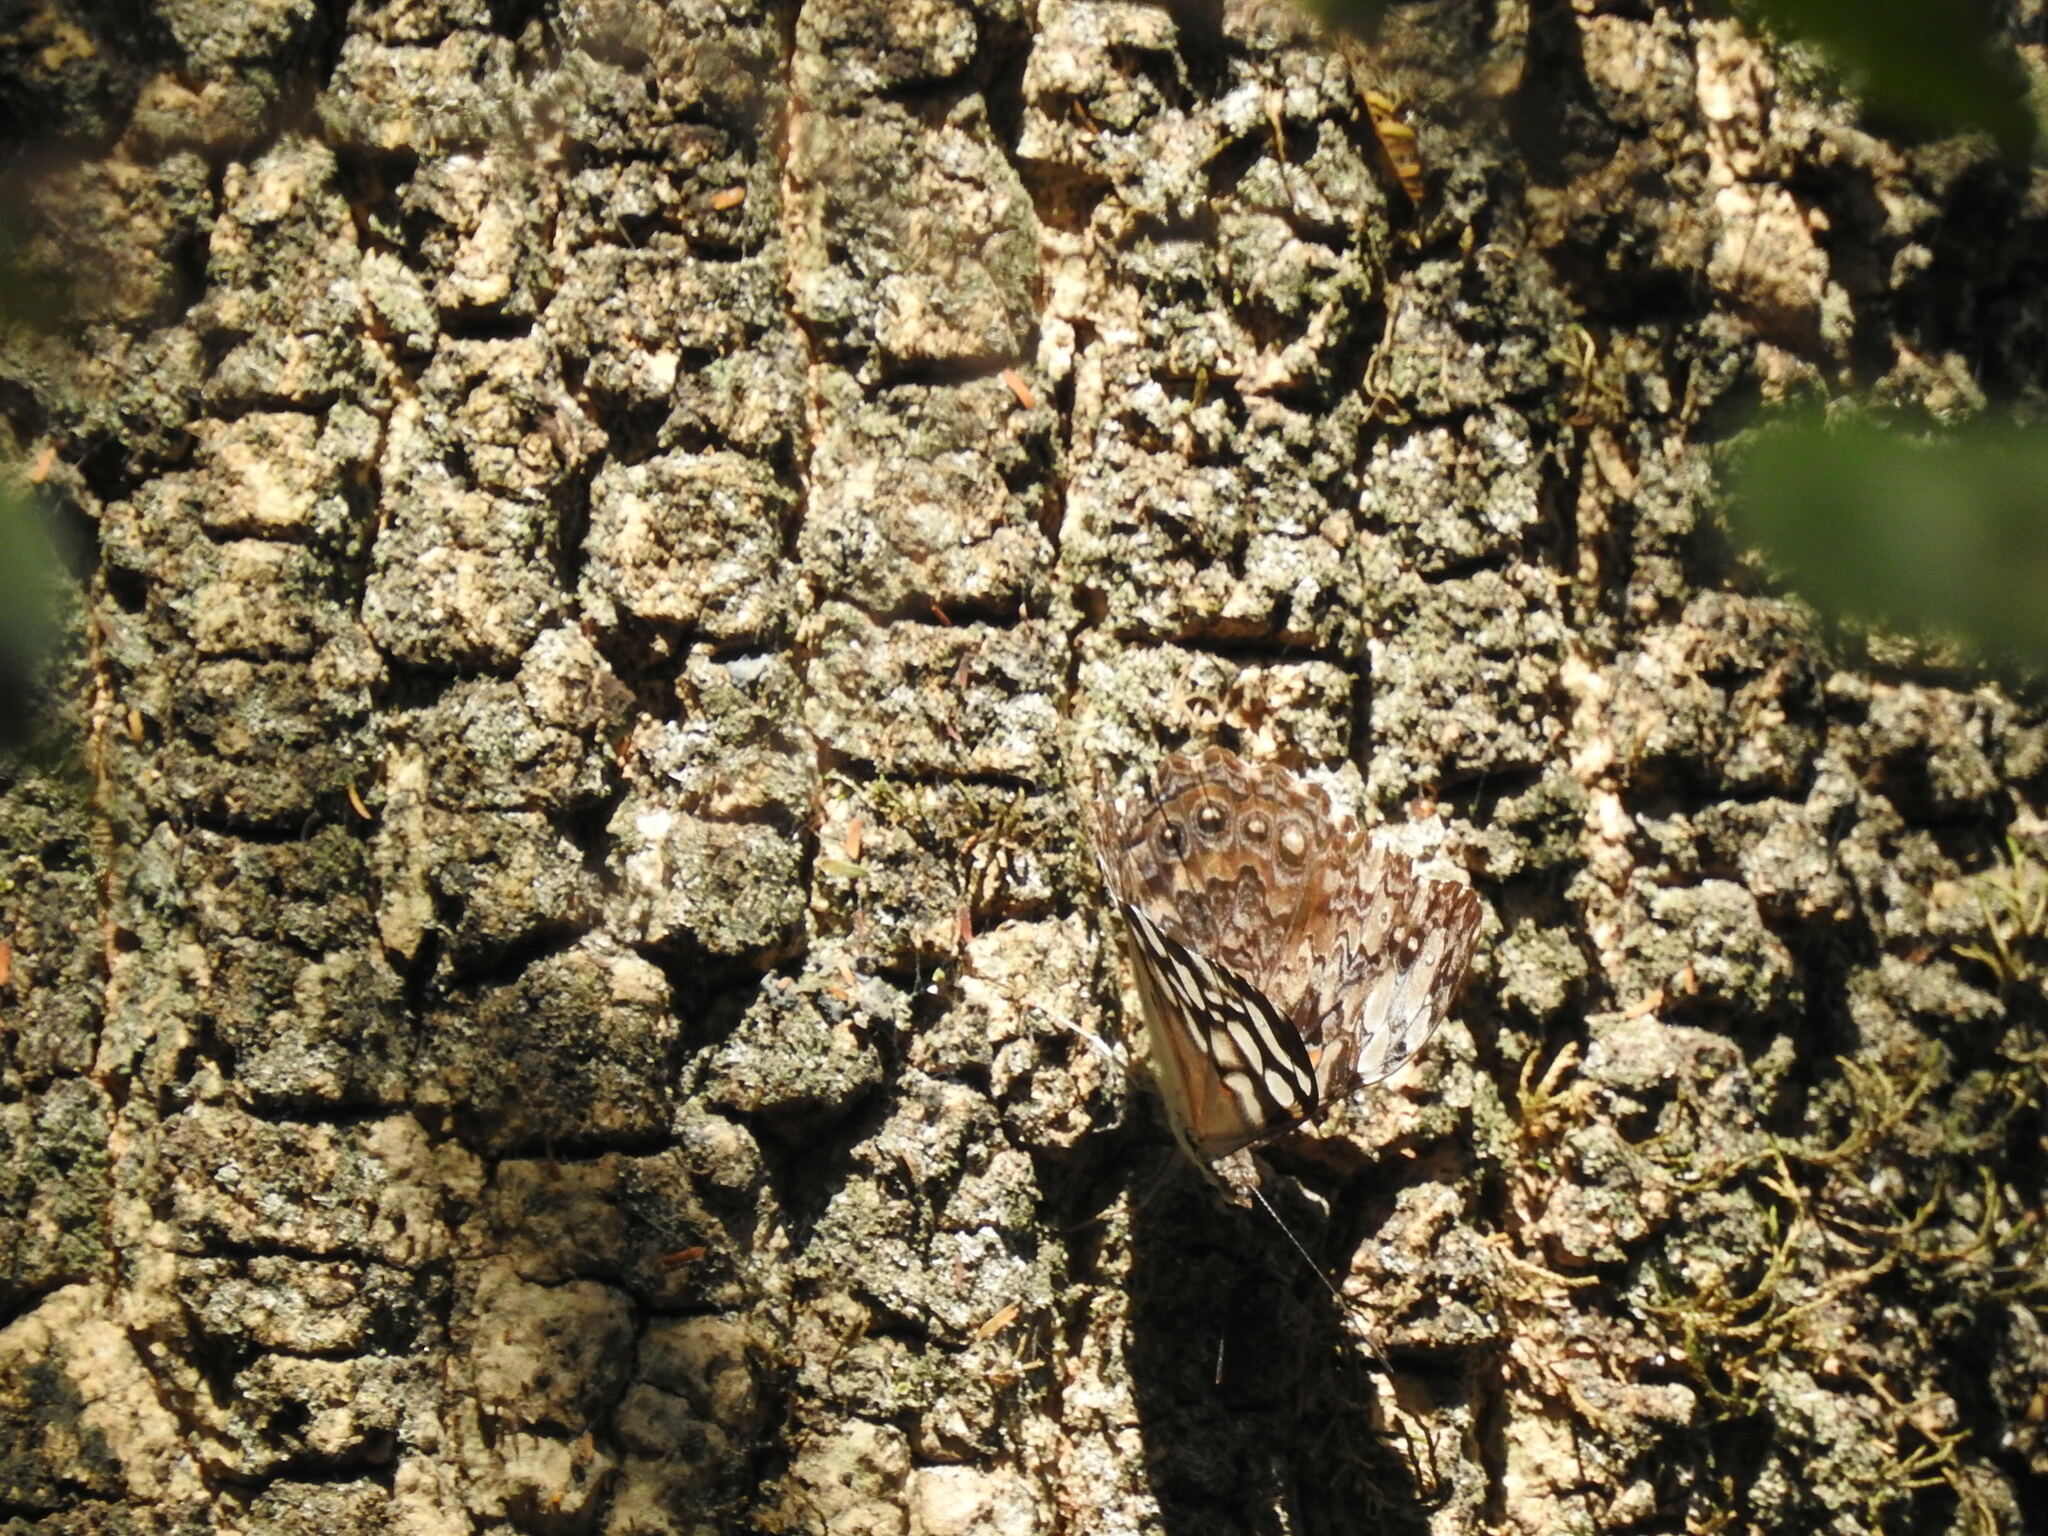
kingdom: Animalia
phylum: Arthropoda
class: Insecta
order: Lepidoptera
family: Nymphalidae
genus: Hamadryas
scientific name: Hamadryas epinome
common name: Epinome cracker
